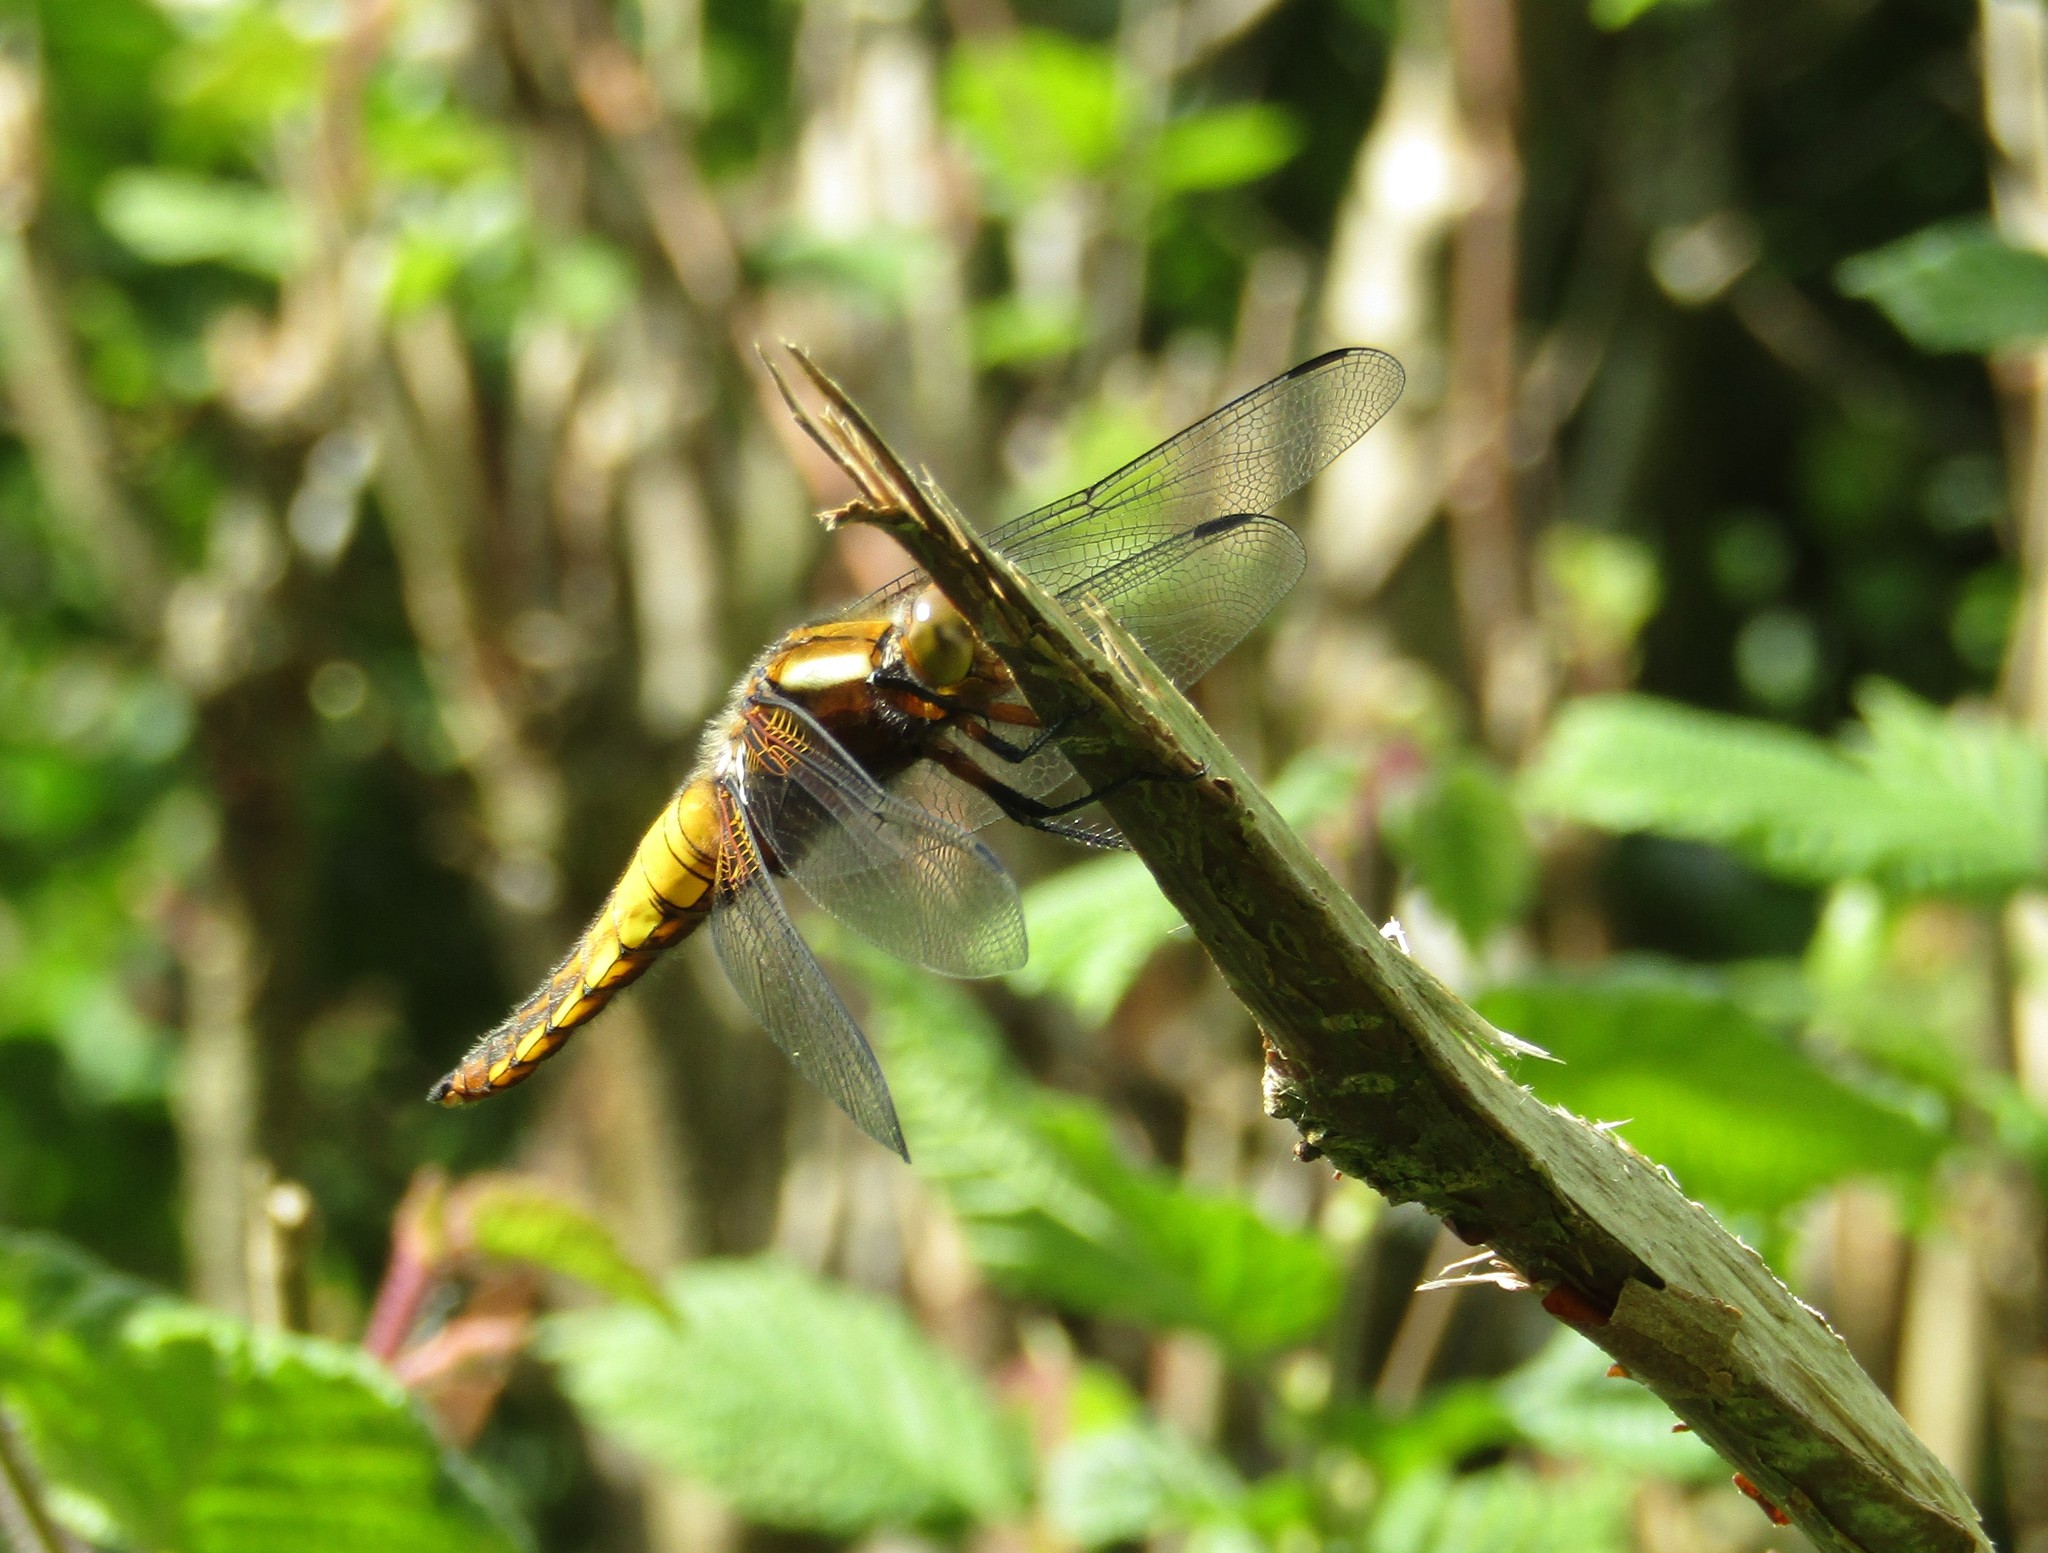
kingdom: Animalia
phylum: Arthropoda
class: Insecta
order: Odonata
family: Libellulidae
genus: Libellula
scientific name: Libellula depressa
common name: Broad-bodied chaser
